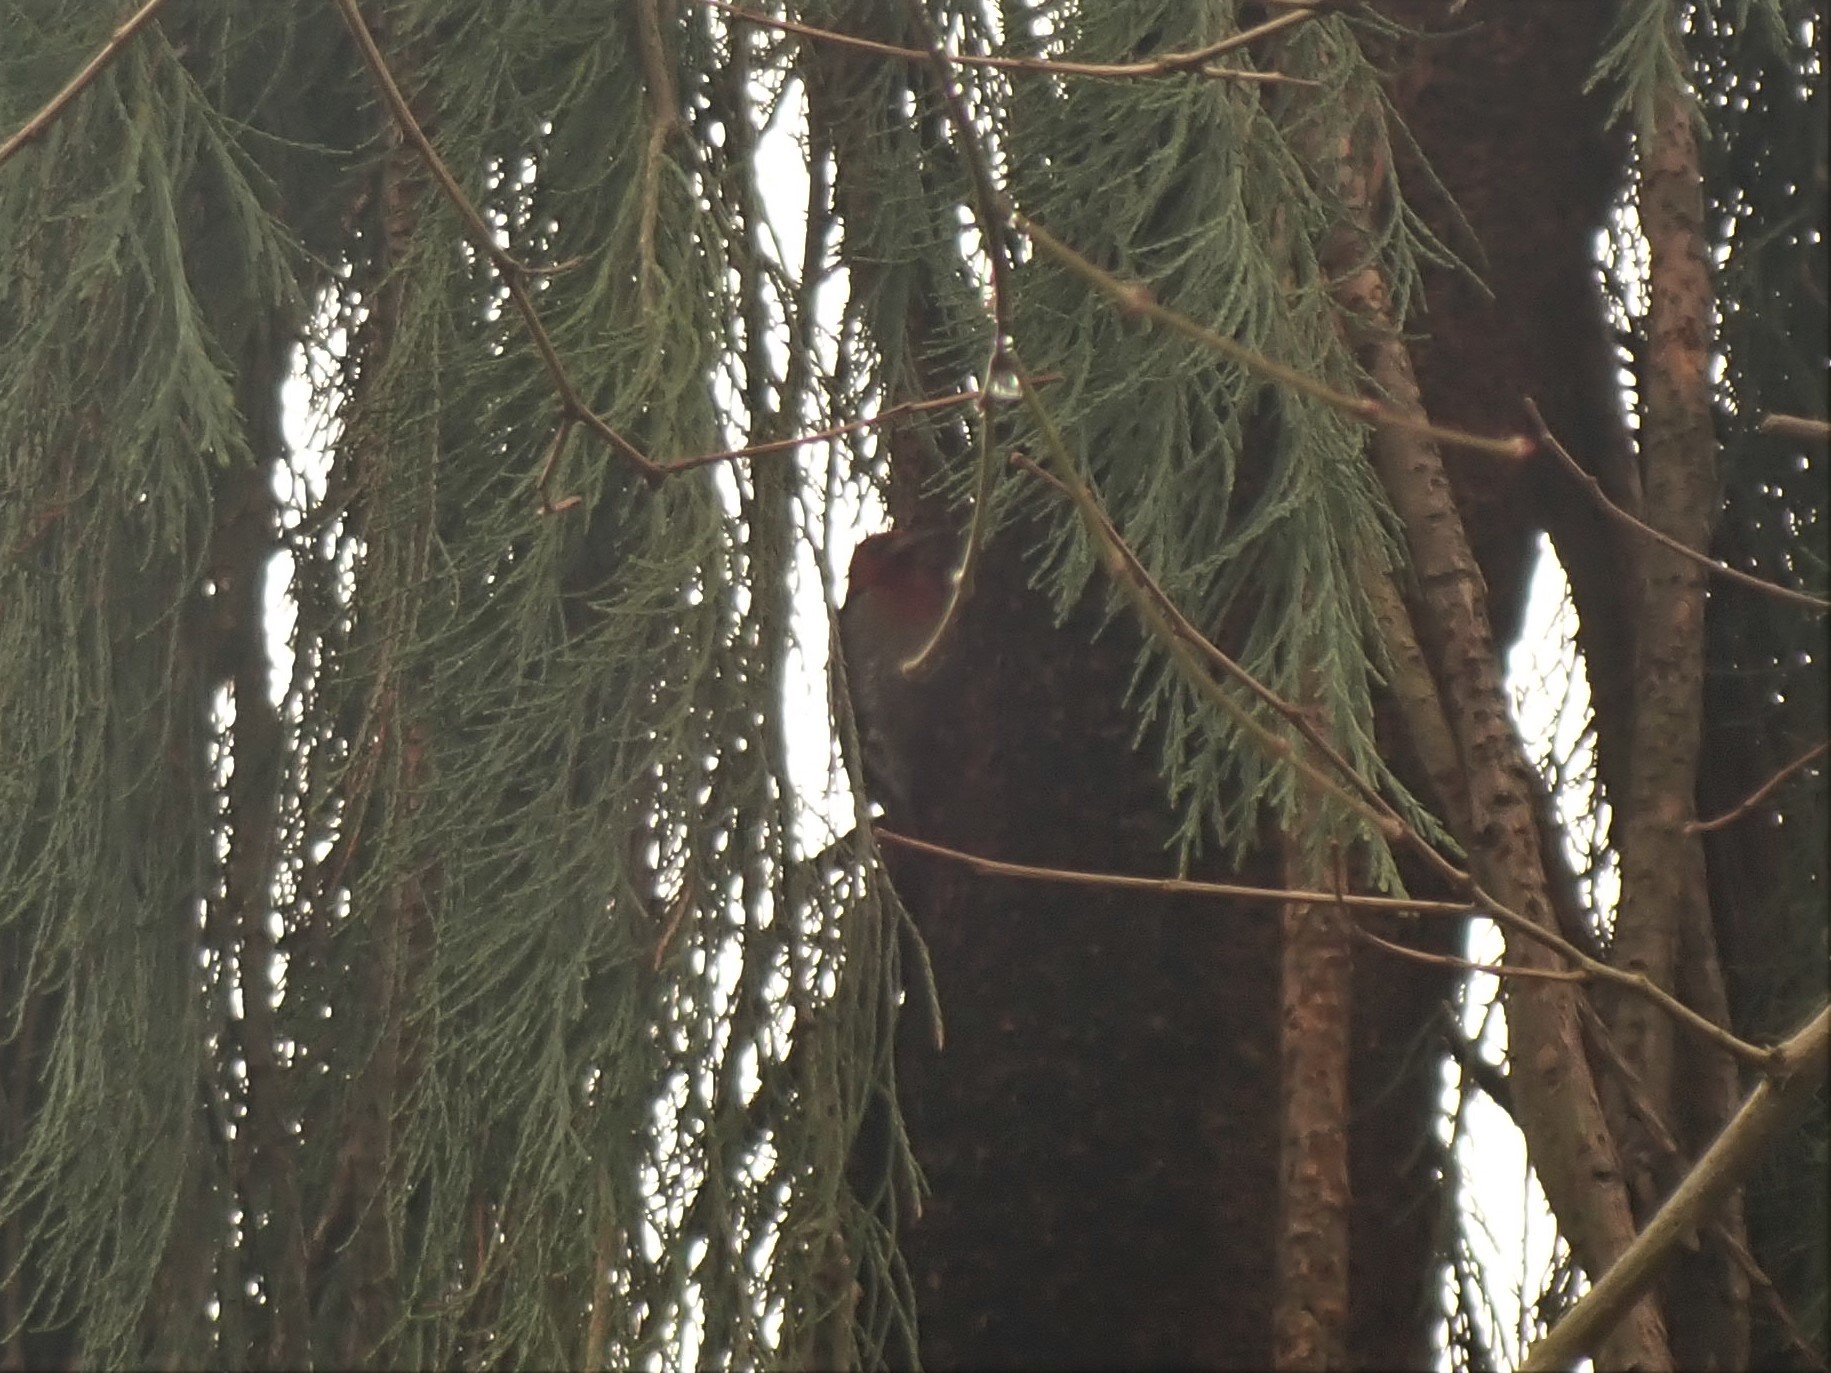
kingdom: Animalia
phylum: Chordata
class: Aves
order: Piciformes
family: Picidae
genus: Sphyrapicus
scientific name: Sphyrapicus ruber
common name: Red-breasted sapsucker
